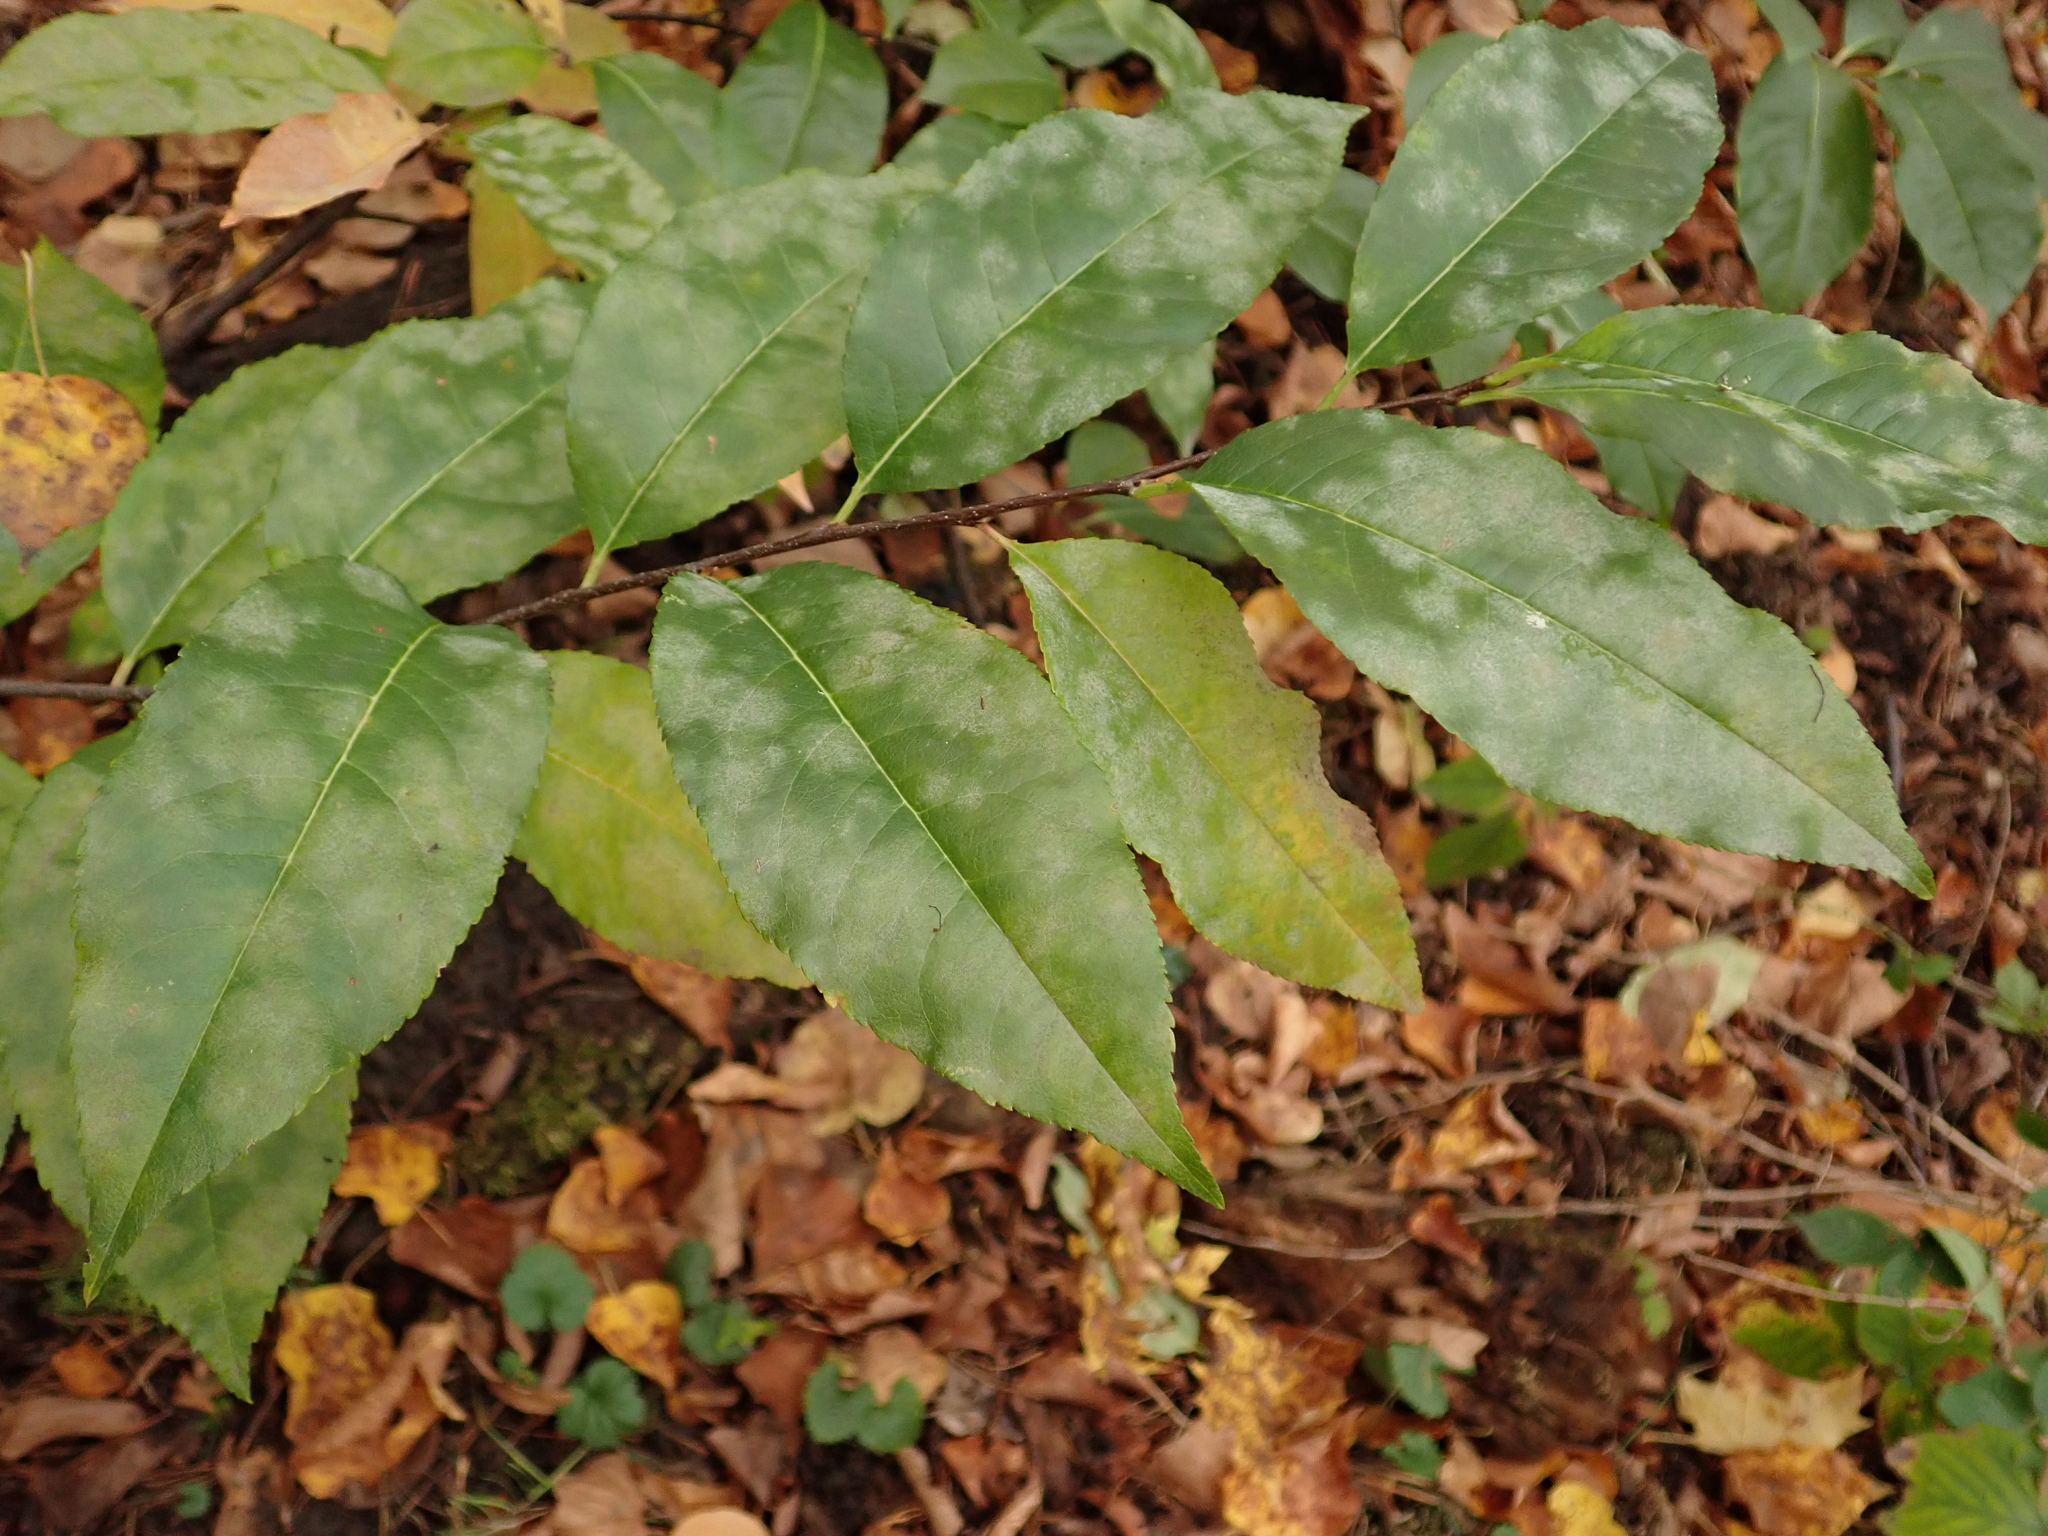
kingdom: Plantae
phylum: Tracheophyta
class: Magnoliopsida
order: Rosales
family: Rosaceae
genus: Prunus
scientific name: Prunus serotina
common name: Black cherry
